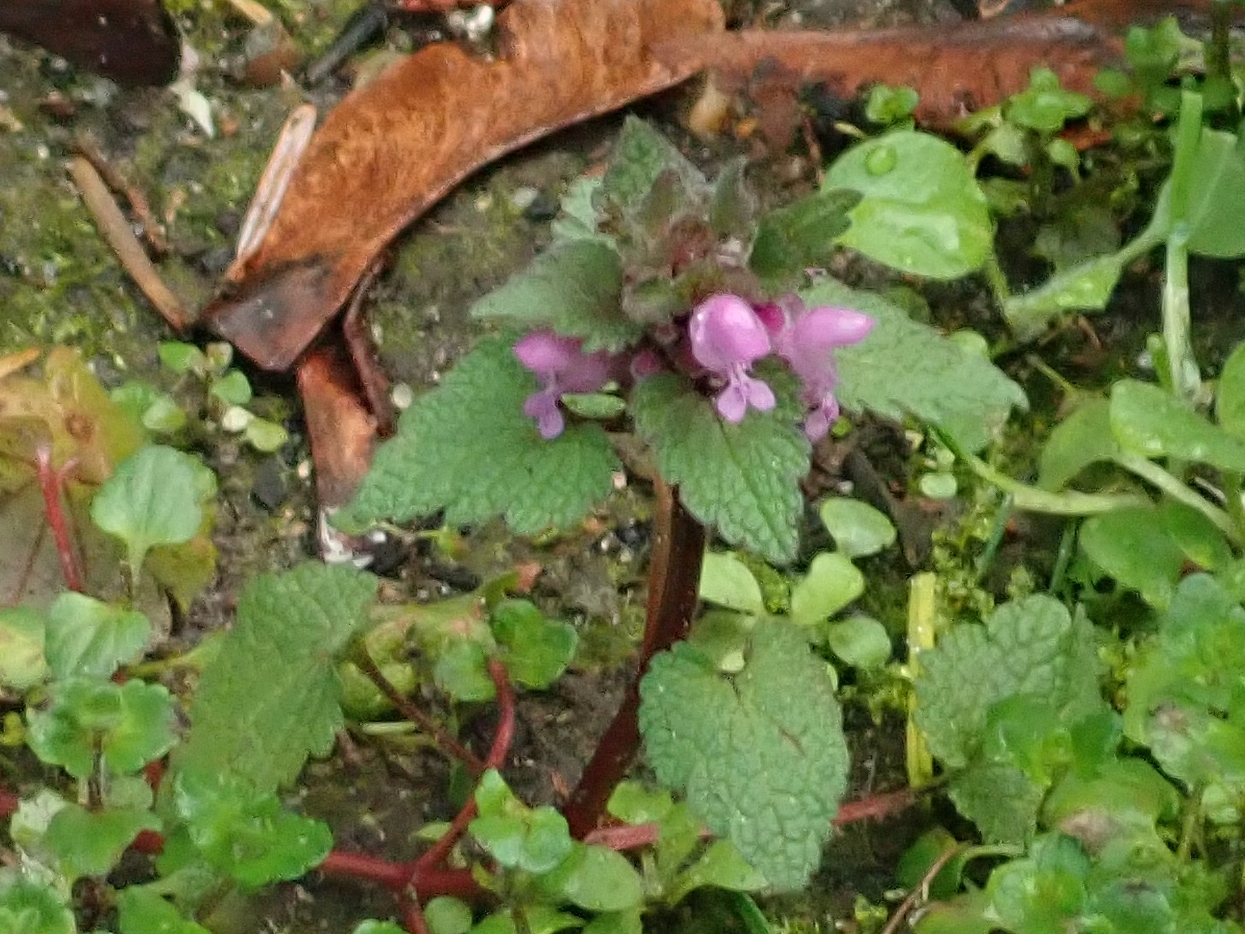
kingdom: Plantae
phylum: Tracheophyta
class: Magnoliopsida
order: Lamiales
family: Lamiaceae
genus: Lamium
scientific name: Lamium purpureum
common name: Red dead-nettle
